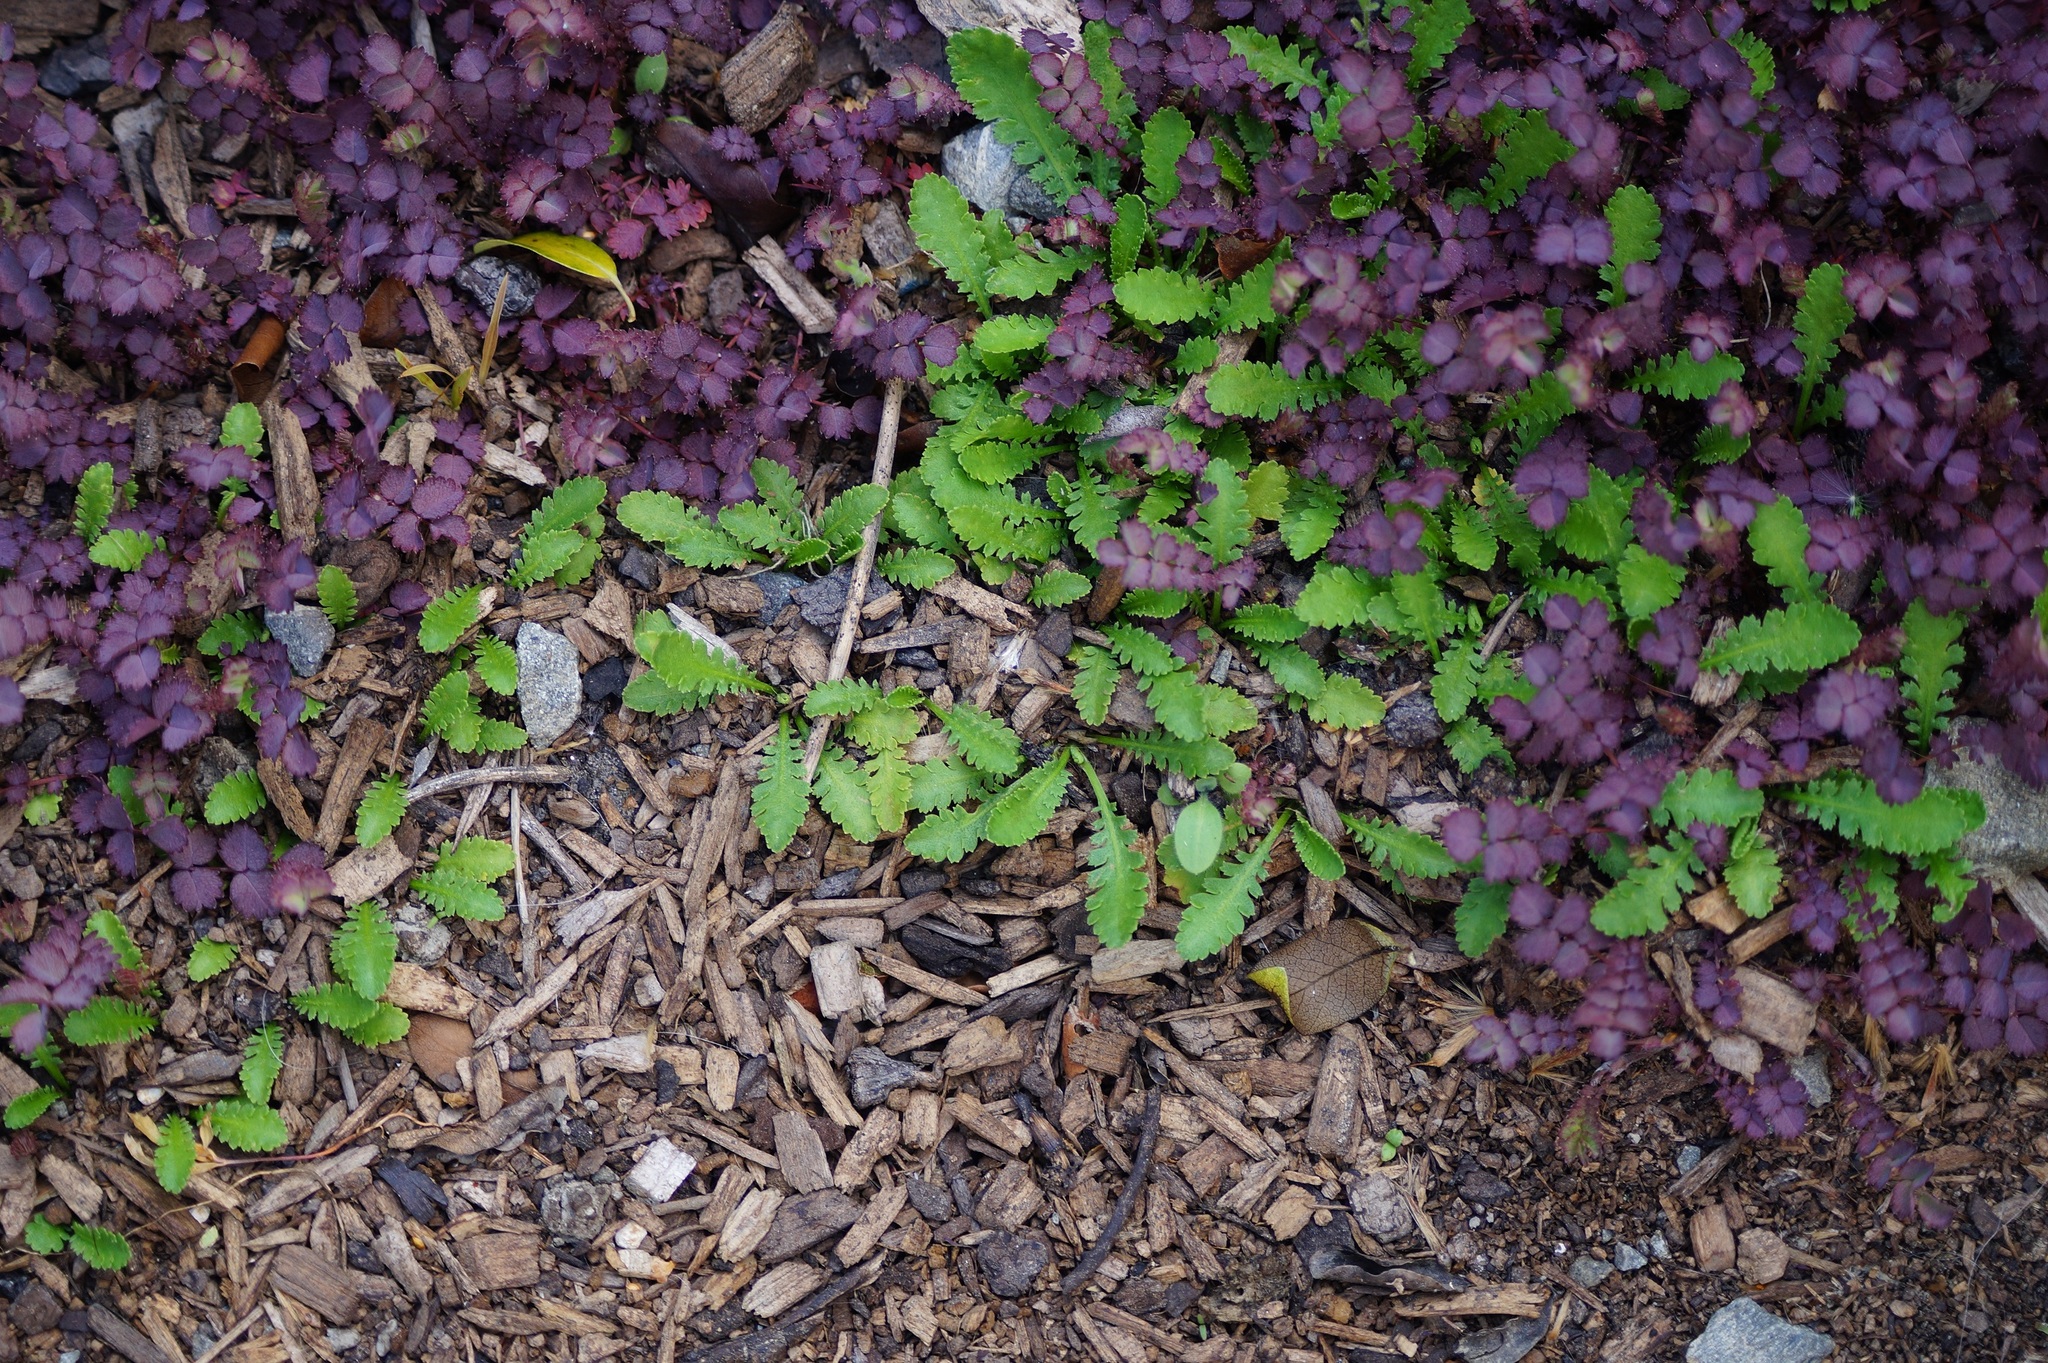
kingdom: Plantae
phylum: Tracheophyta
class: Magnoliopsida
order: Asterales
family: Asteraceae
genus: Leptinella
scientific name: Leptinella dioica
